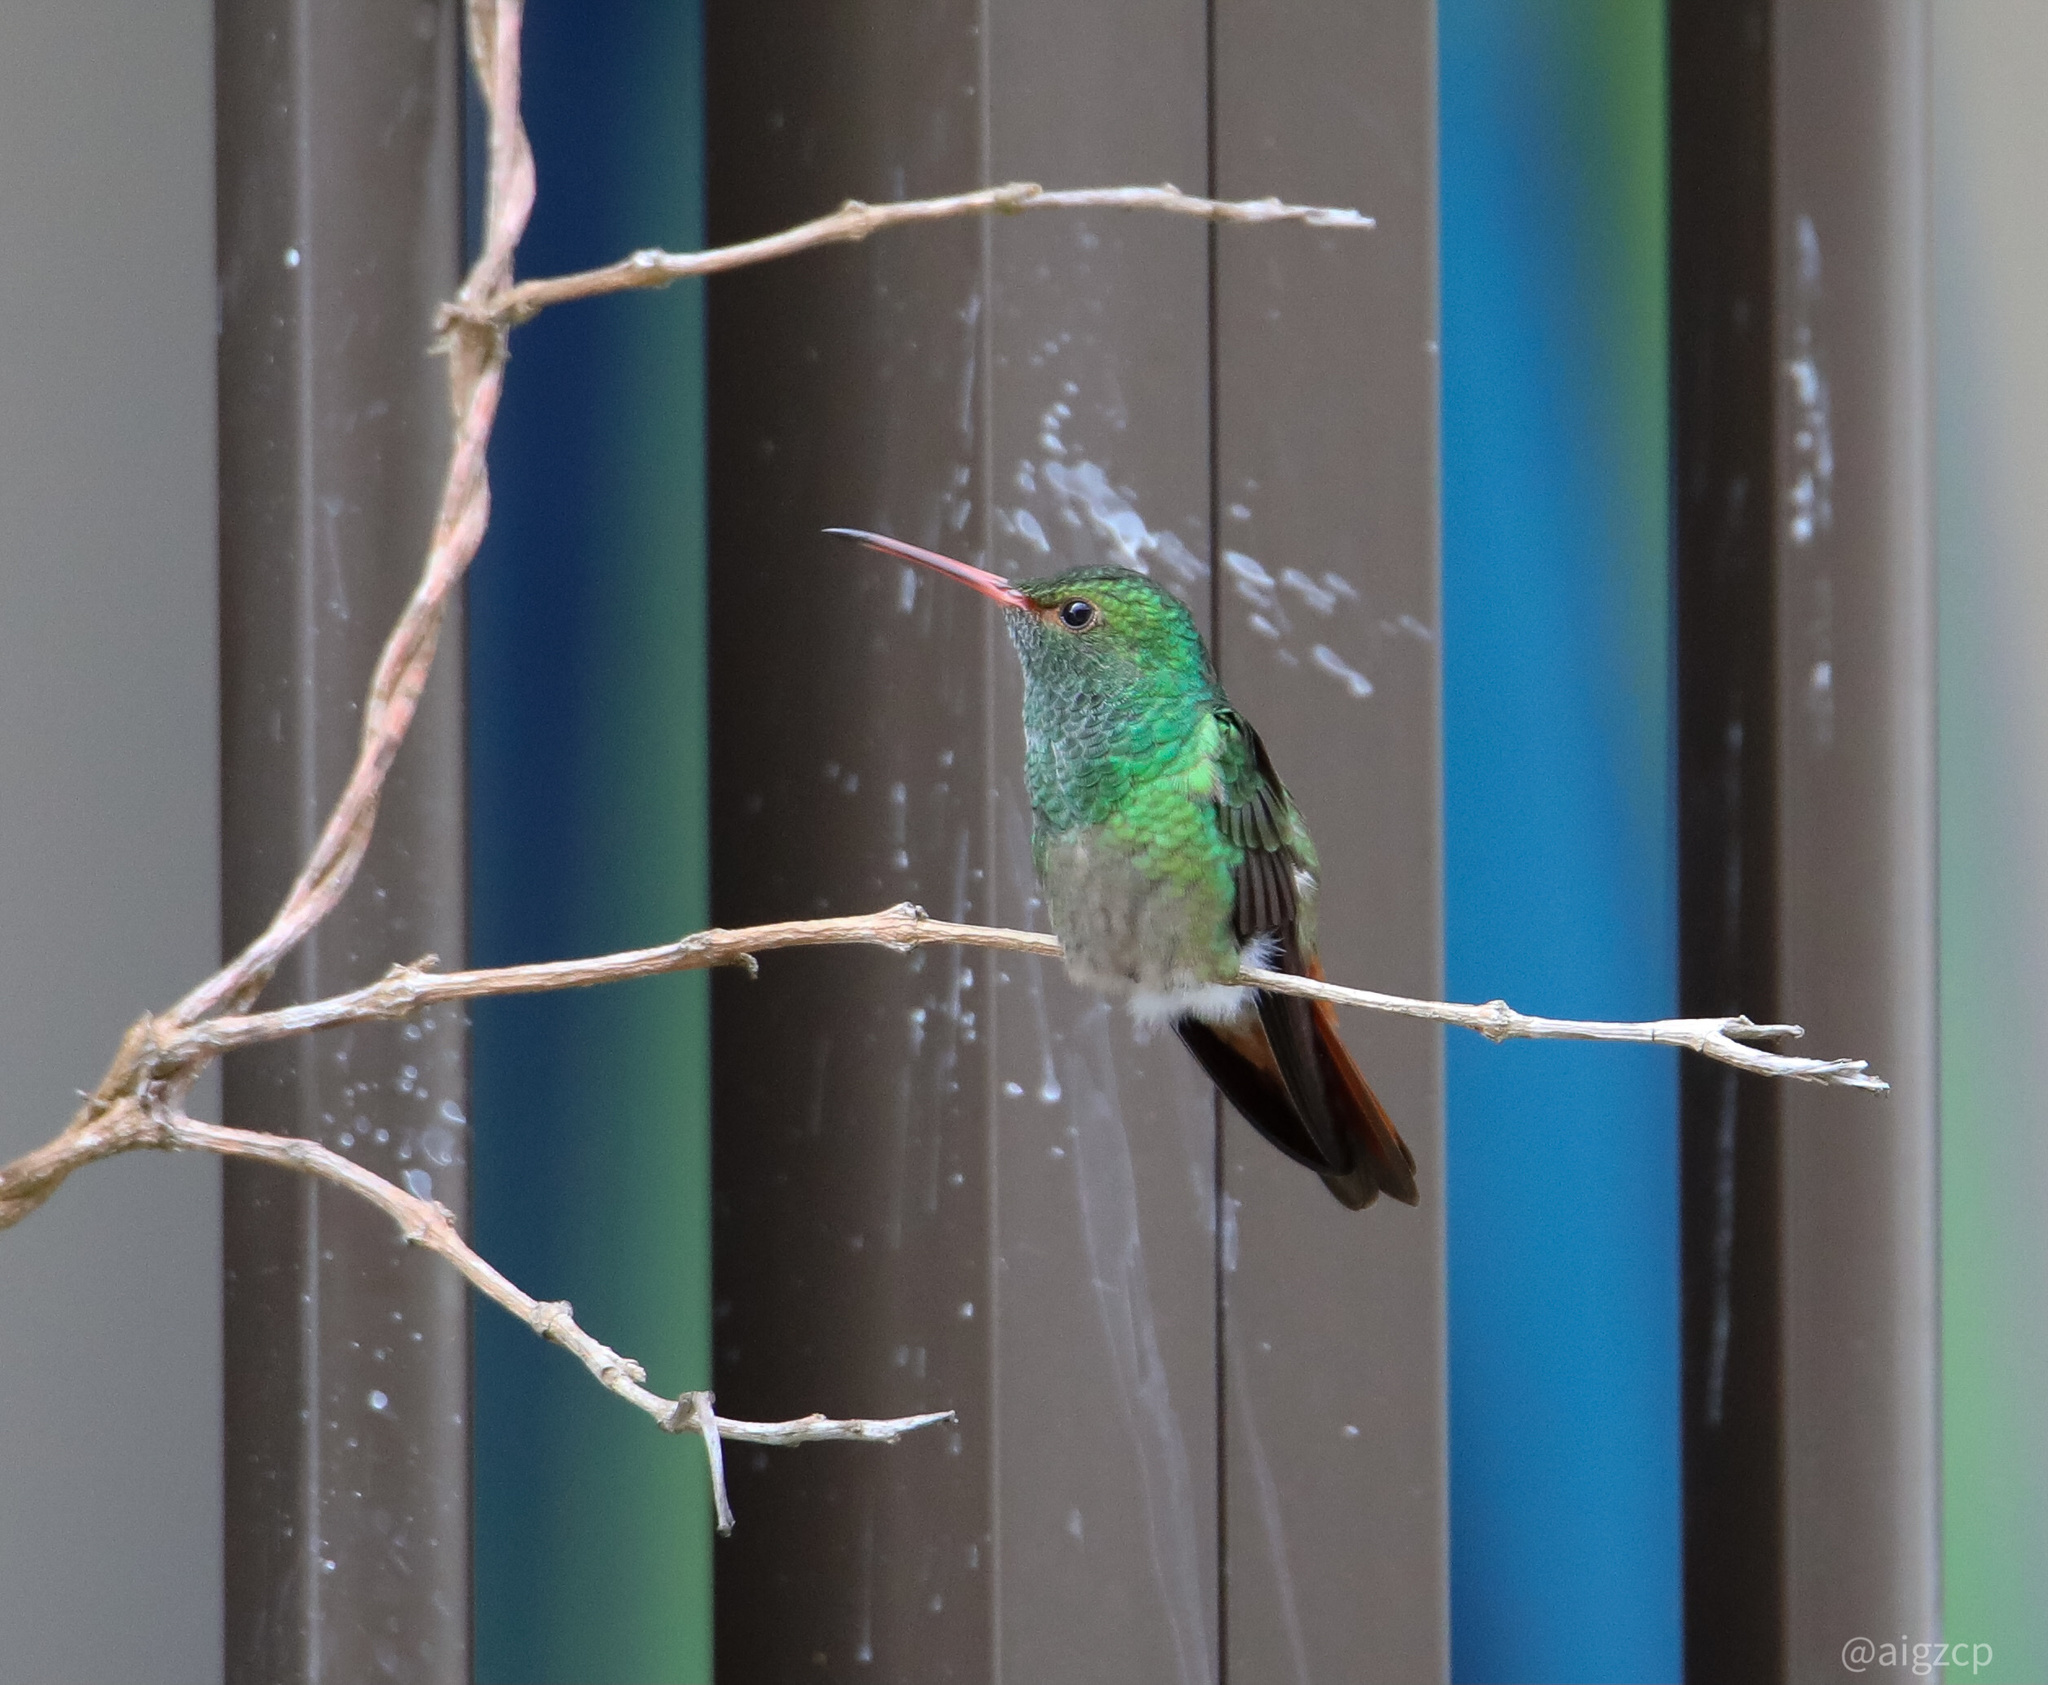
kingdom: Animalia
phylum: Chordata
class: Aves
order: Apodiformes
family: Trochilidae
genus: Amazilia
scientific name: Amazilia tzacatl
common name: Rufous-tailed hummingbird
